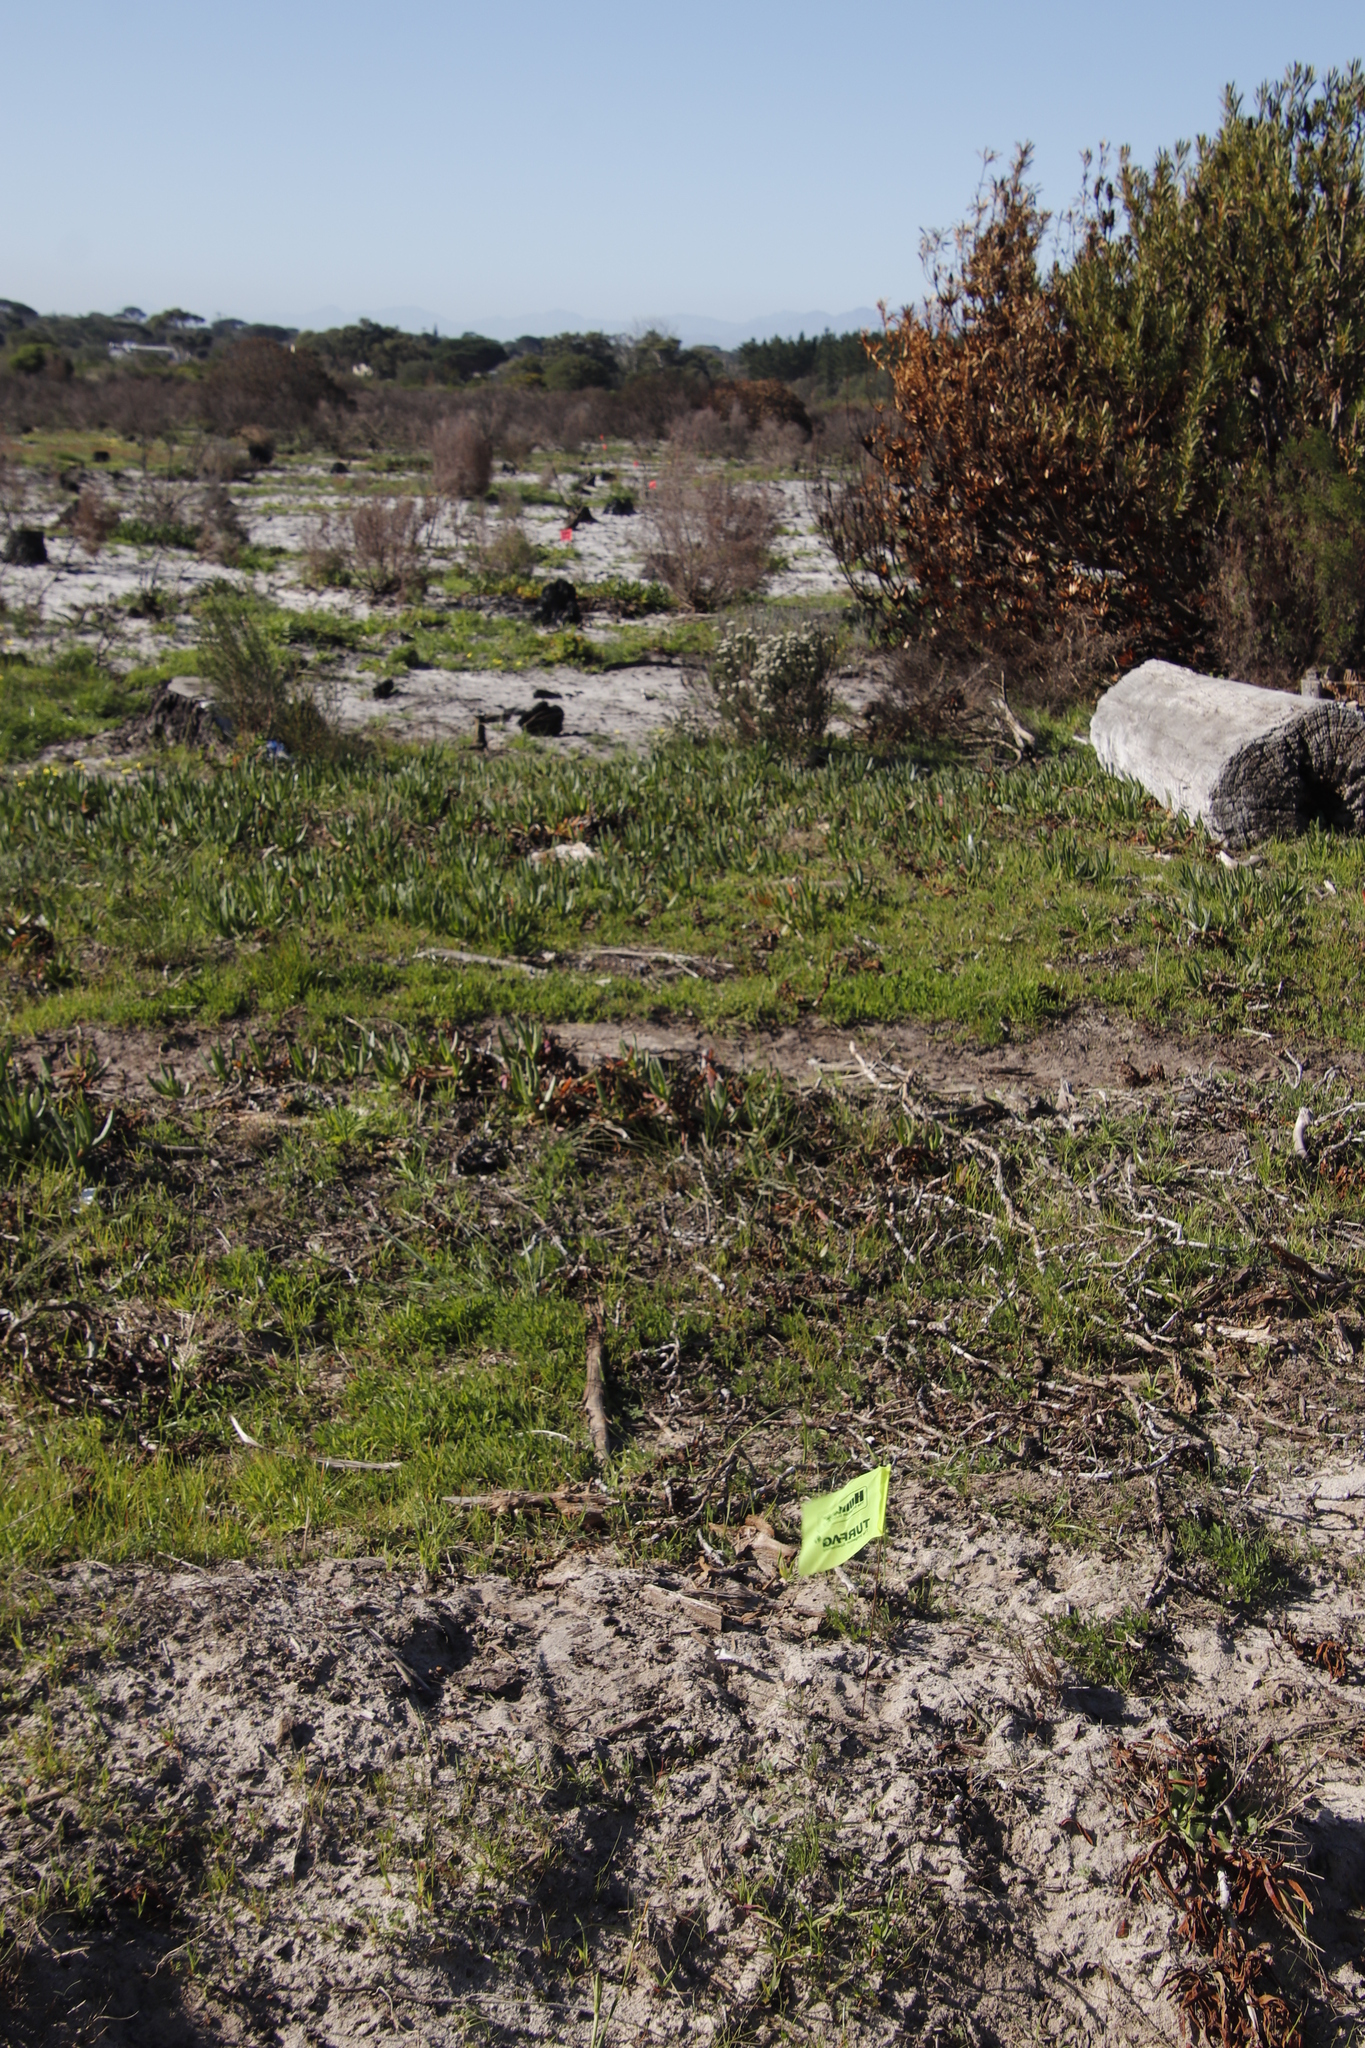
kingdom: Plantae
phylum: Tracheophyta
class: Magnoliopsida
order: Caryophyllales
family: Aizoaceae
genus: Carpobrotus
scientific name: Carpobrotus edulis
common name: Hottentot-fig
